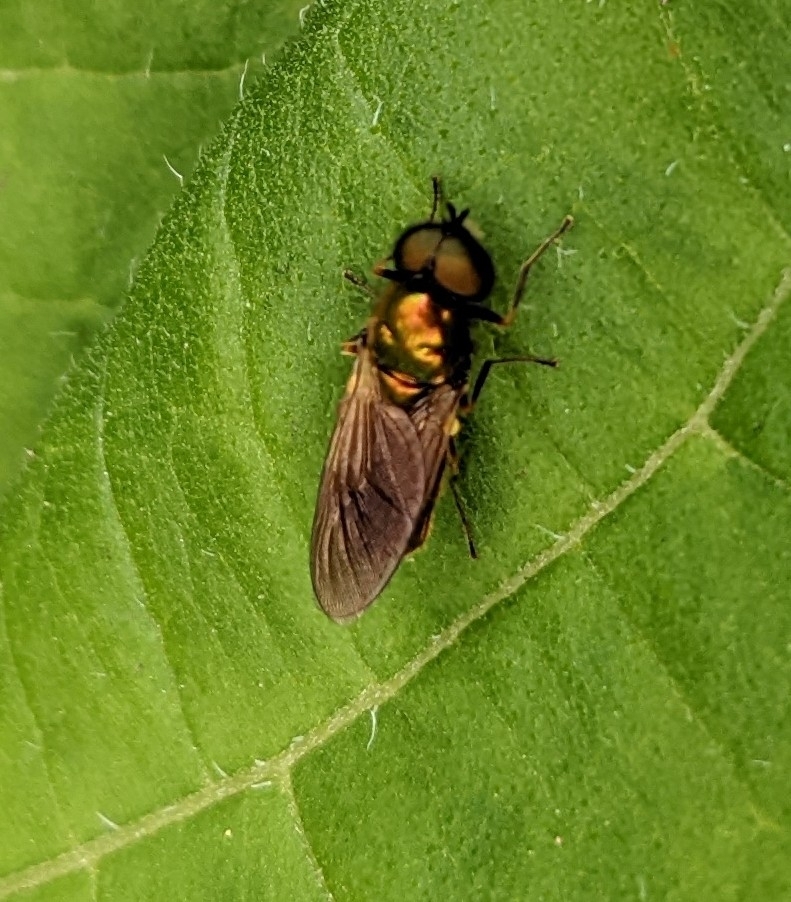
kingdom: Animalia
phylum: Arthropoda
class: Insecta
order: Diptera
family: Stratiomyidae
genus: Chloromyia
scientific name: Chloromyia formosa
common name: Soldier fly
